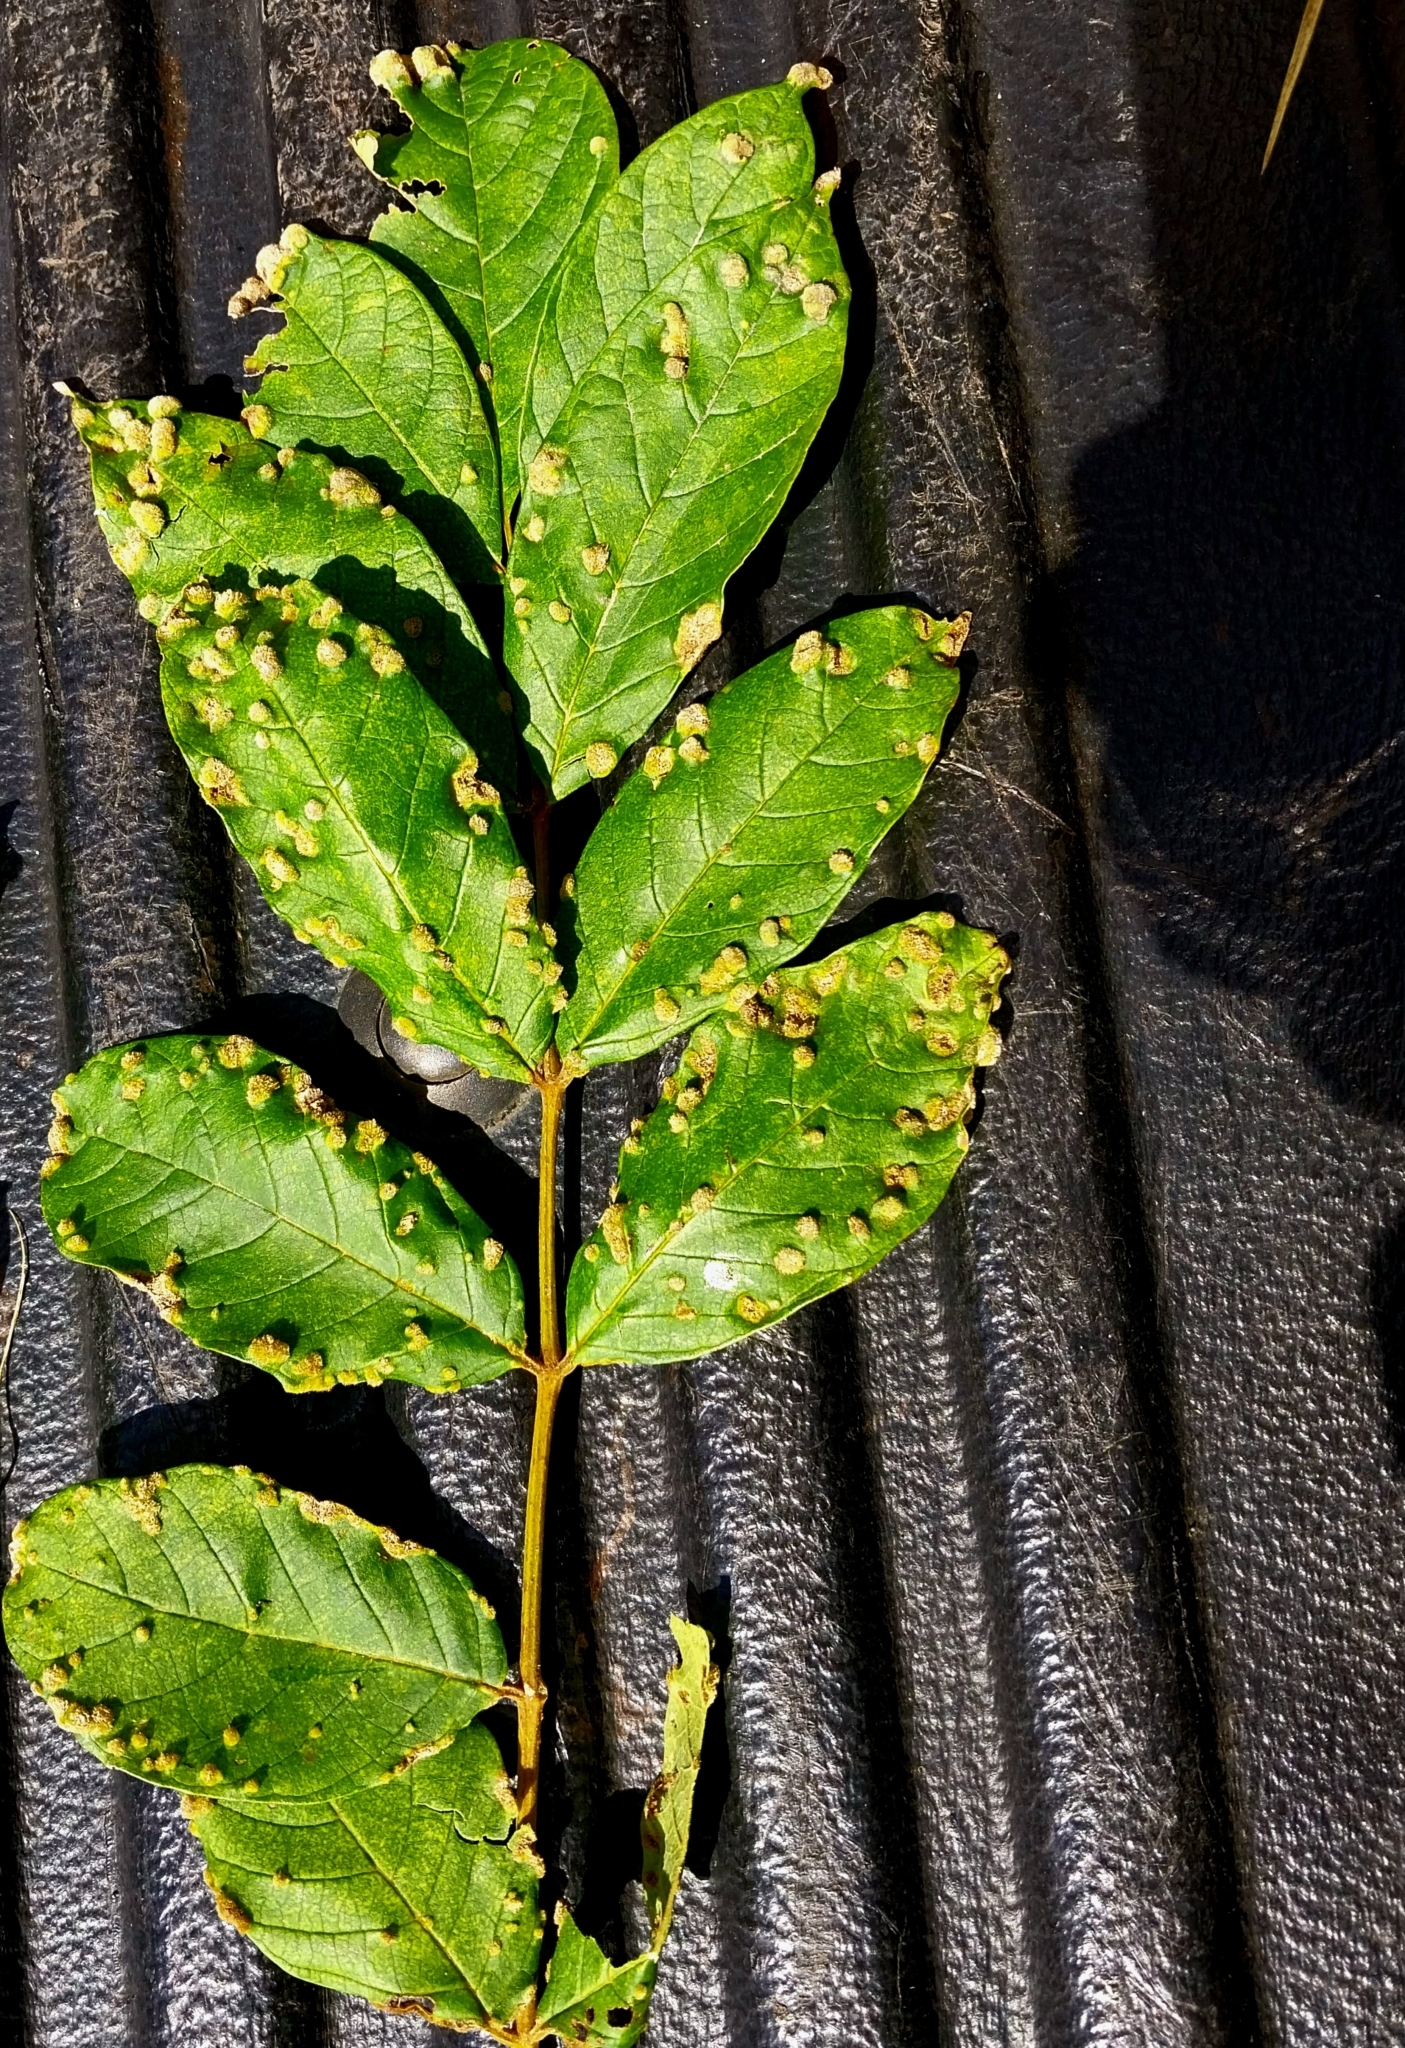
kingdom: Animalia
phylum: Arthropoda
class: Arachnida
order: Trombidiformes
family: Eriophyidae
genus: Colomerus
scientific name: Colomerus spathodeae
